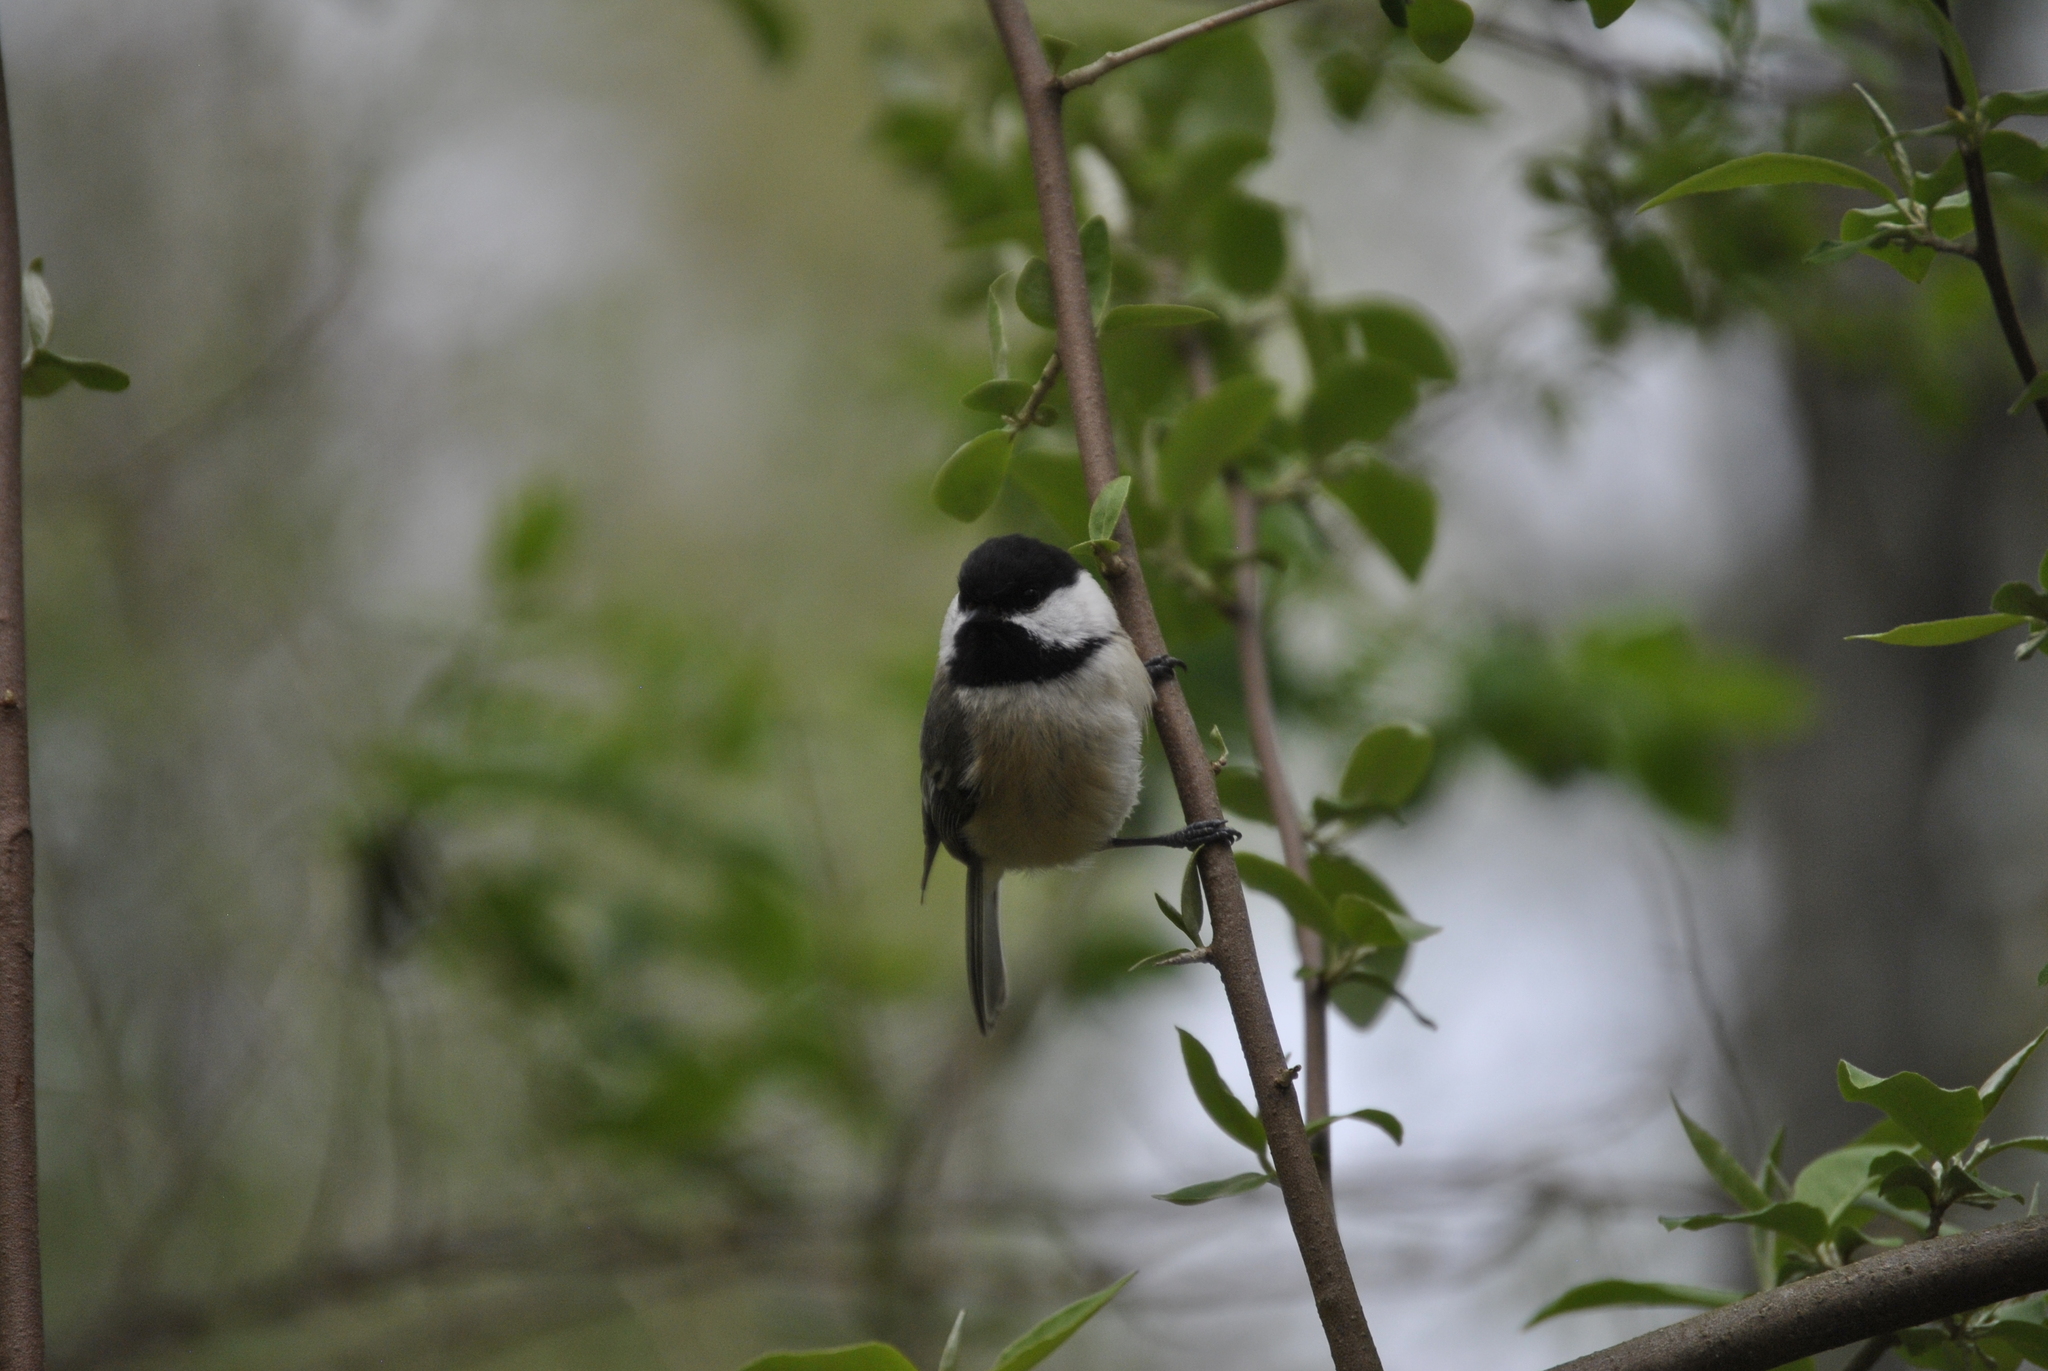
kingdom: Animalia
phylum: Chordata
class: Aves
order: Passeriformes
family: Paridae
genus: Poecile
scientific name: Poecile atricapillus
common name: Black-capped chickadee
